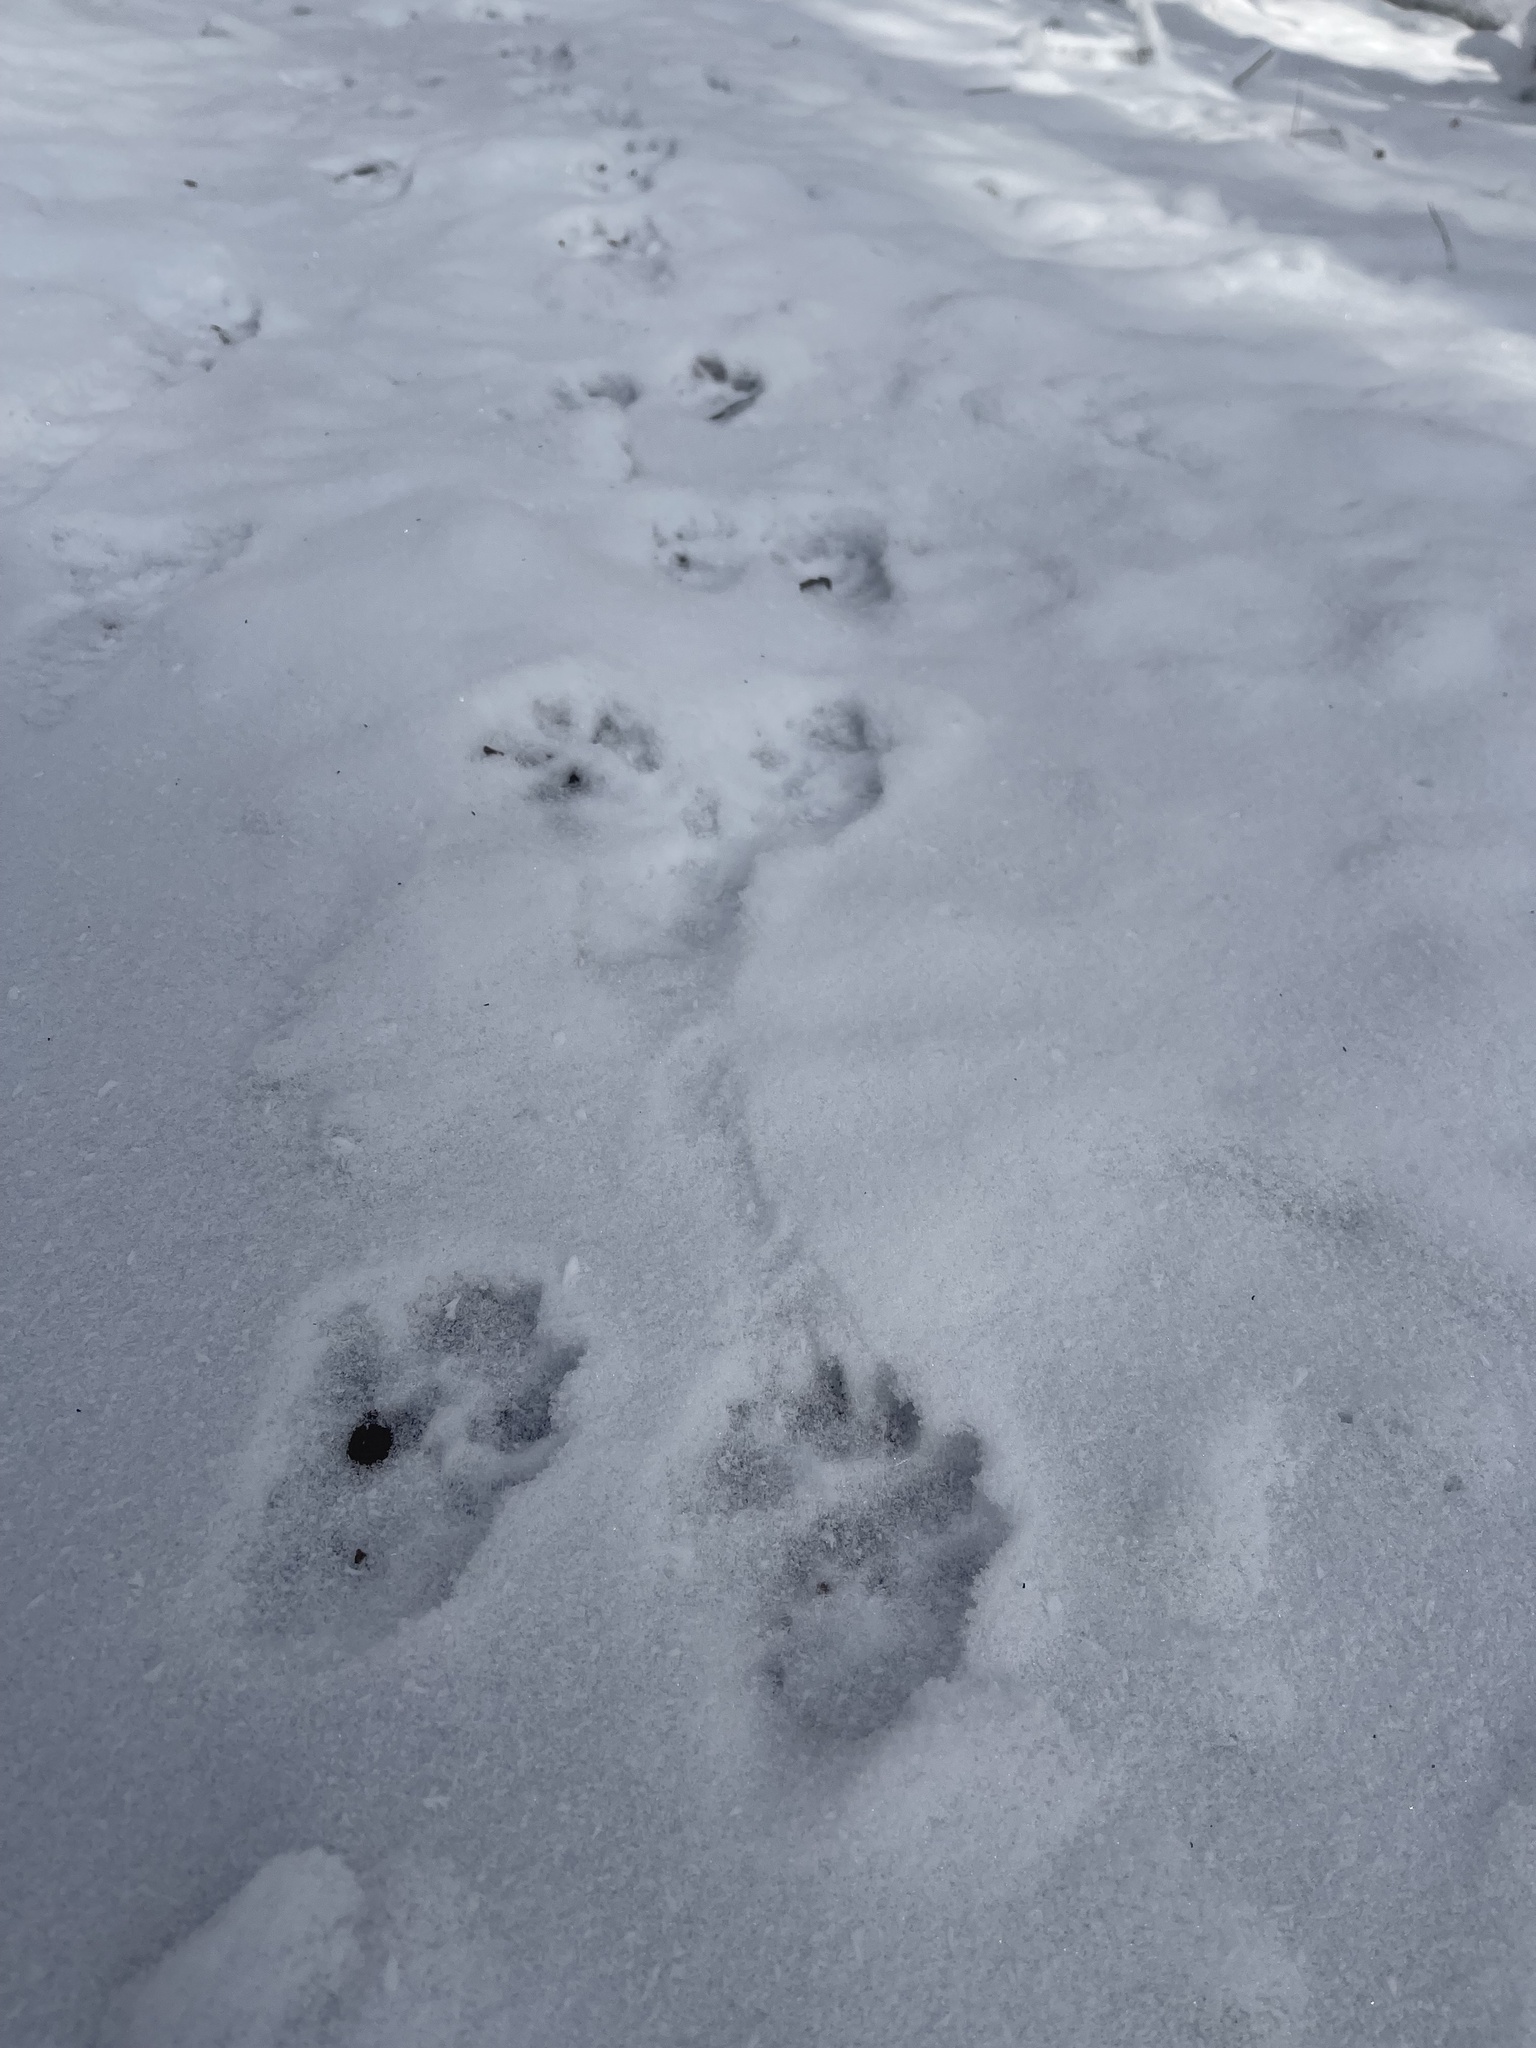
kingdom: Animalia
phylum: Chordata
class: Mammalia
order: Carnivora
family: Mustelidae
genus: Pekania
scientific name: Pekania pennanti
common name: Fisher
